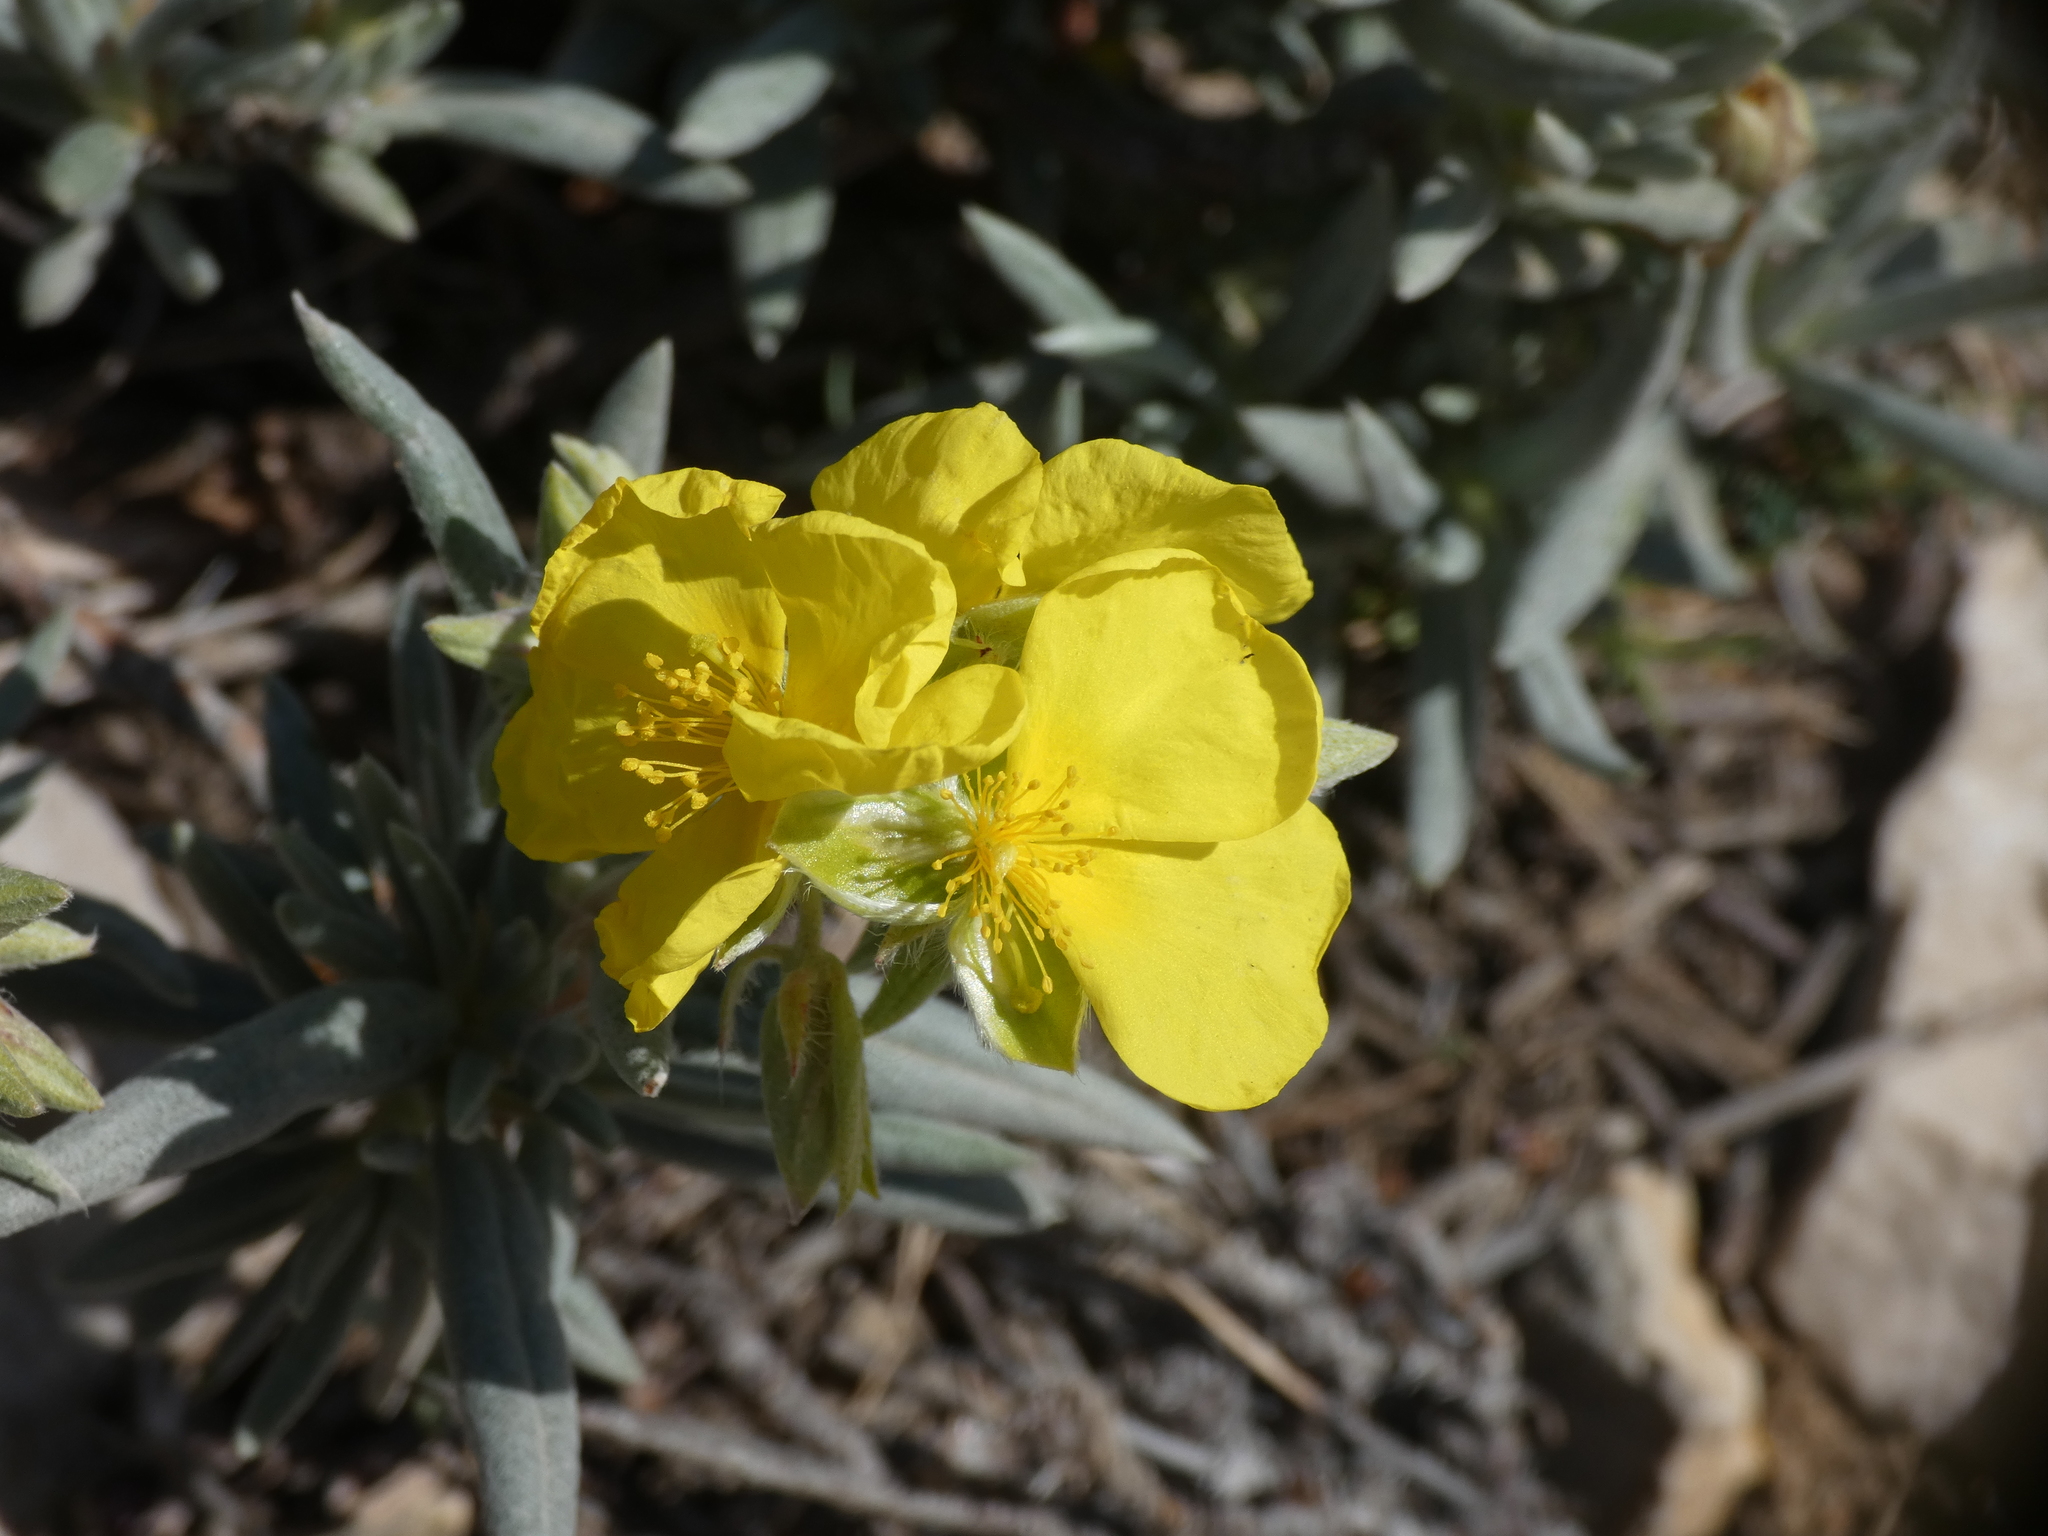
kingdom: Plantae
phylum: Tracheophyta
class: Magnoliopsida
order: Malvales
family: Cistaceae
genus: Helianthemum
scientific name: Helianthemum syriacum
